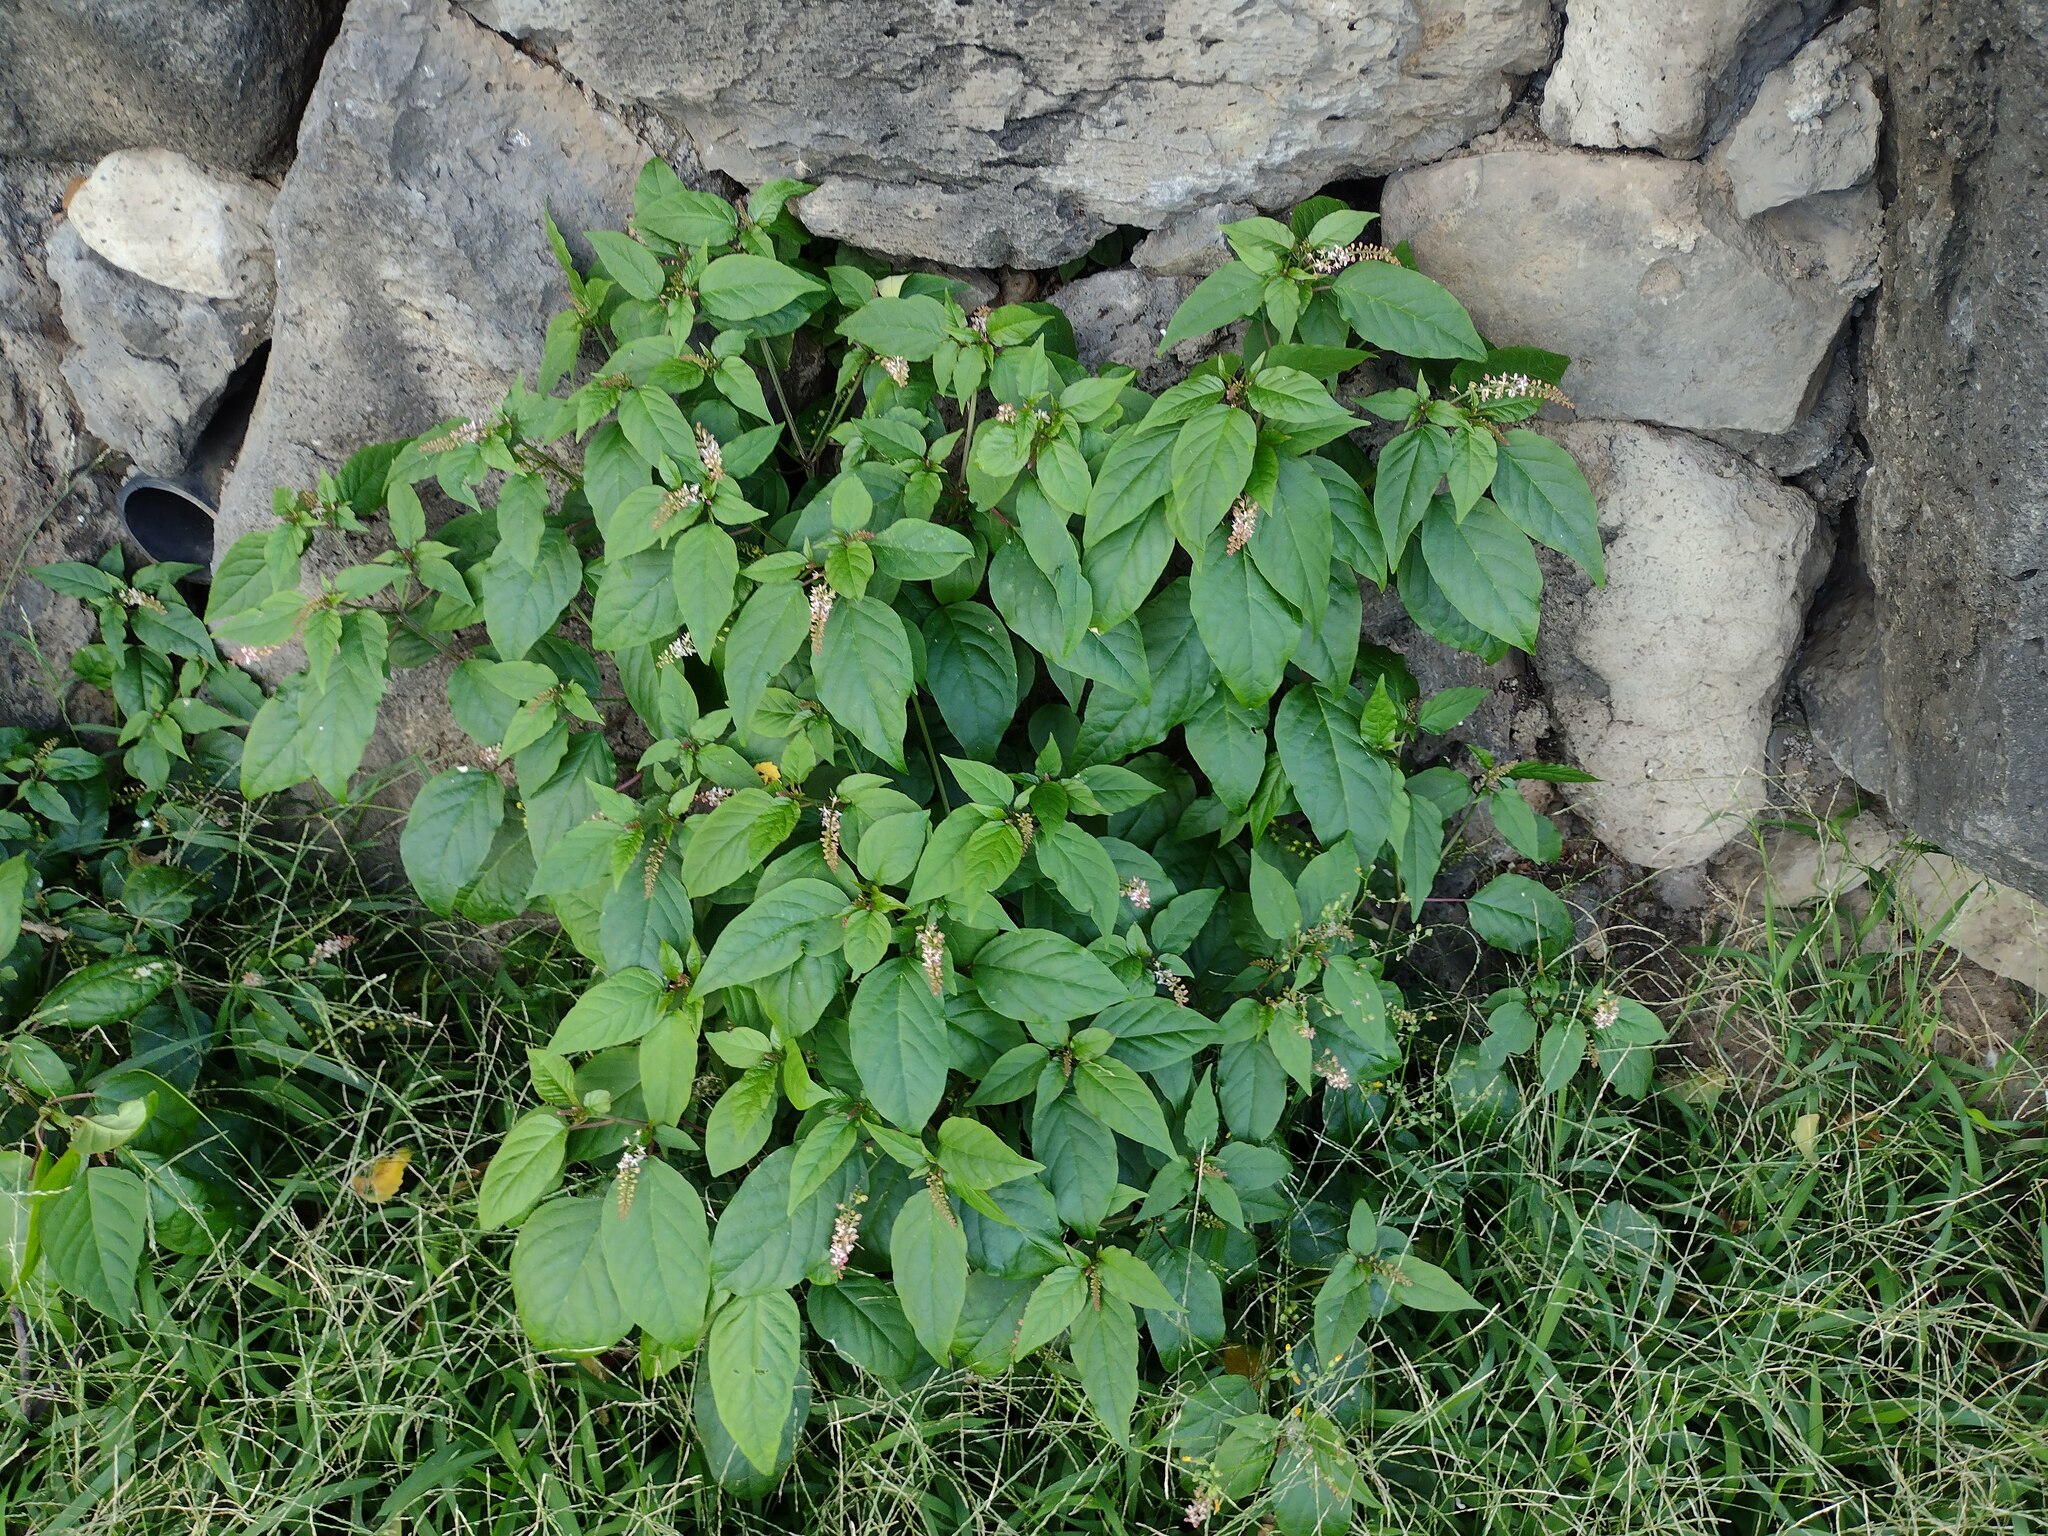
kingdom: Plantae
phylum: Tracheophyta
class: Magnoliopsida
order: Caryophyllales
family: Phytolaccaceae
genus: Rivina
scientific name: Rivina humilis
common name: Rougeplant
